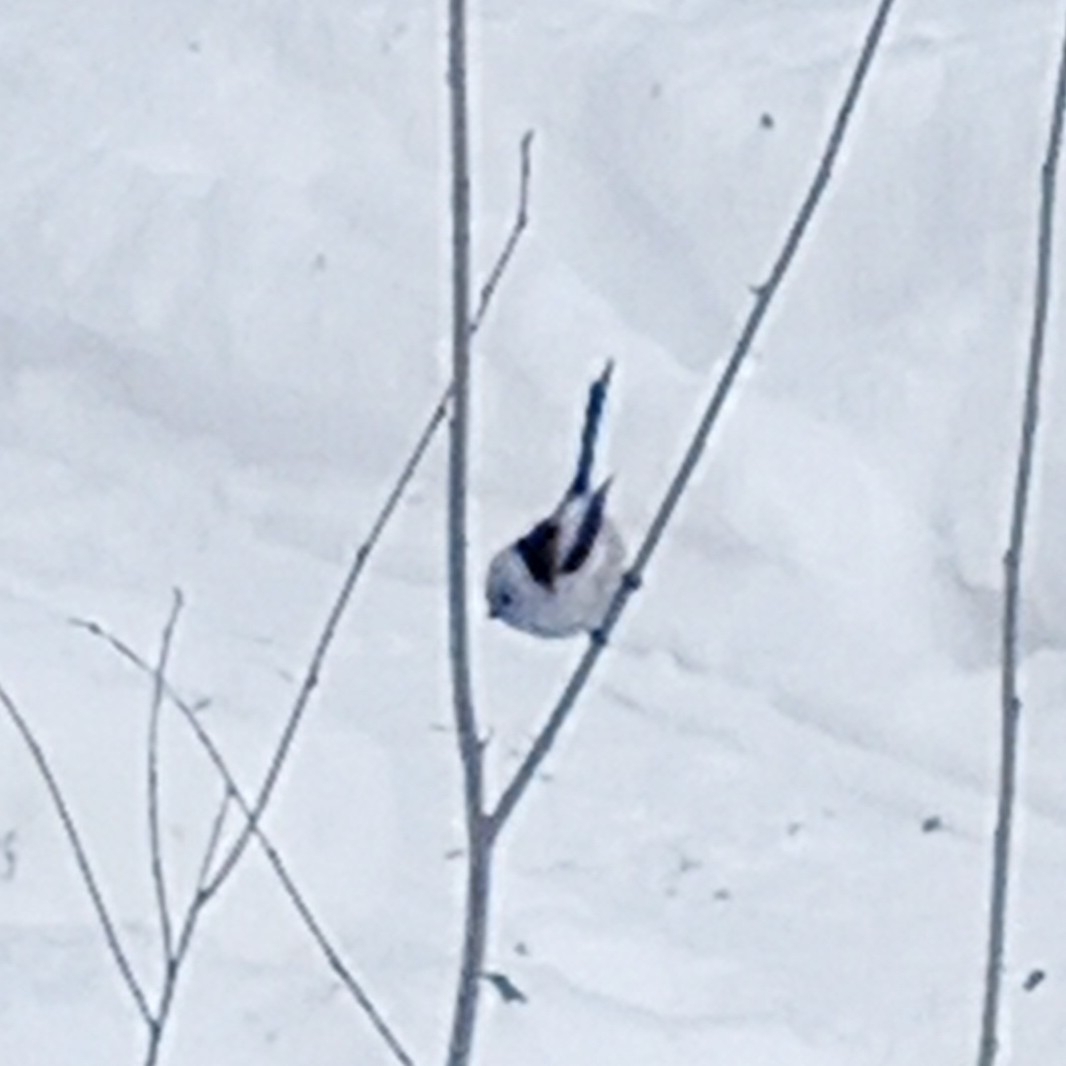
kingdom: Animalia
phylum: Chordata
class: Aves
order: Passeriformes
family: Aegithalidae
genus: Aegithalos
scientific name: Aegithalos caudatus
